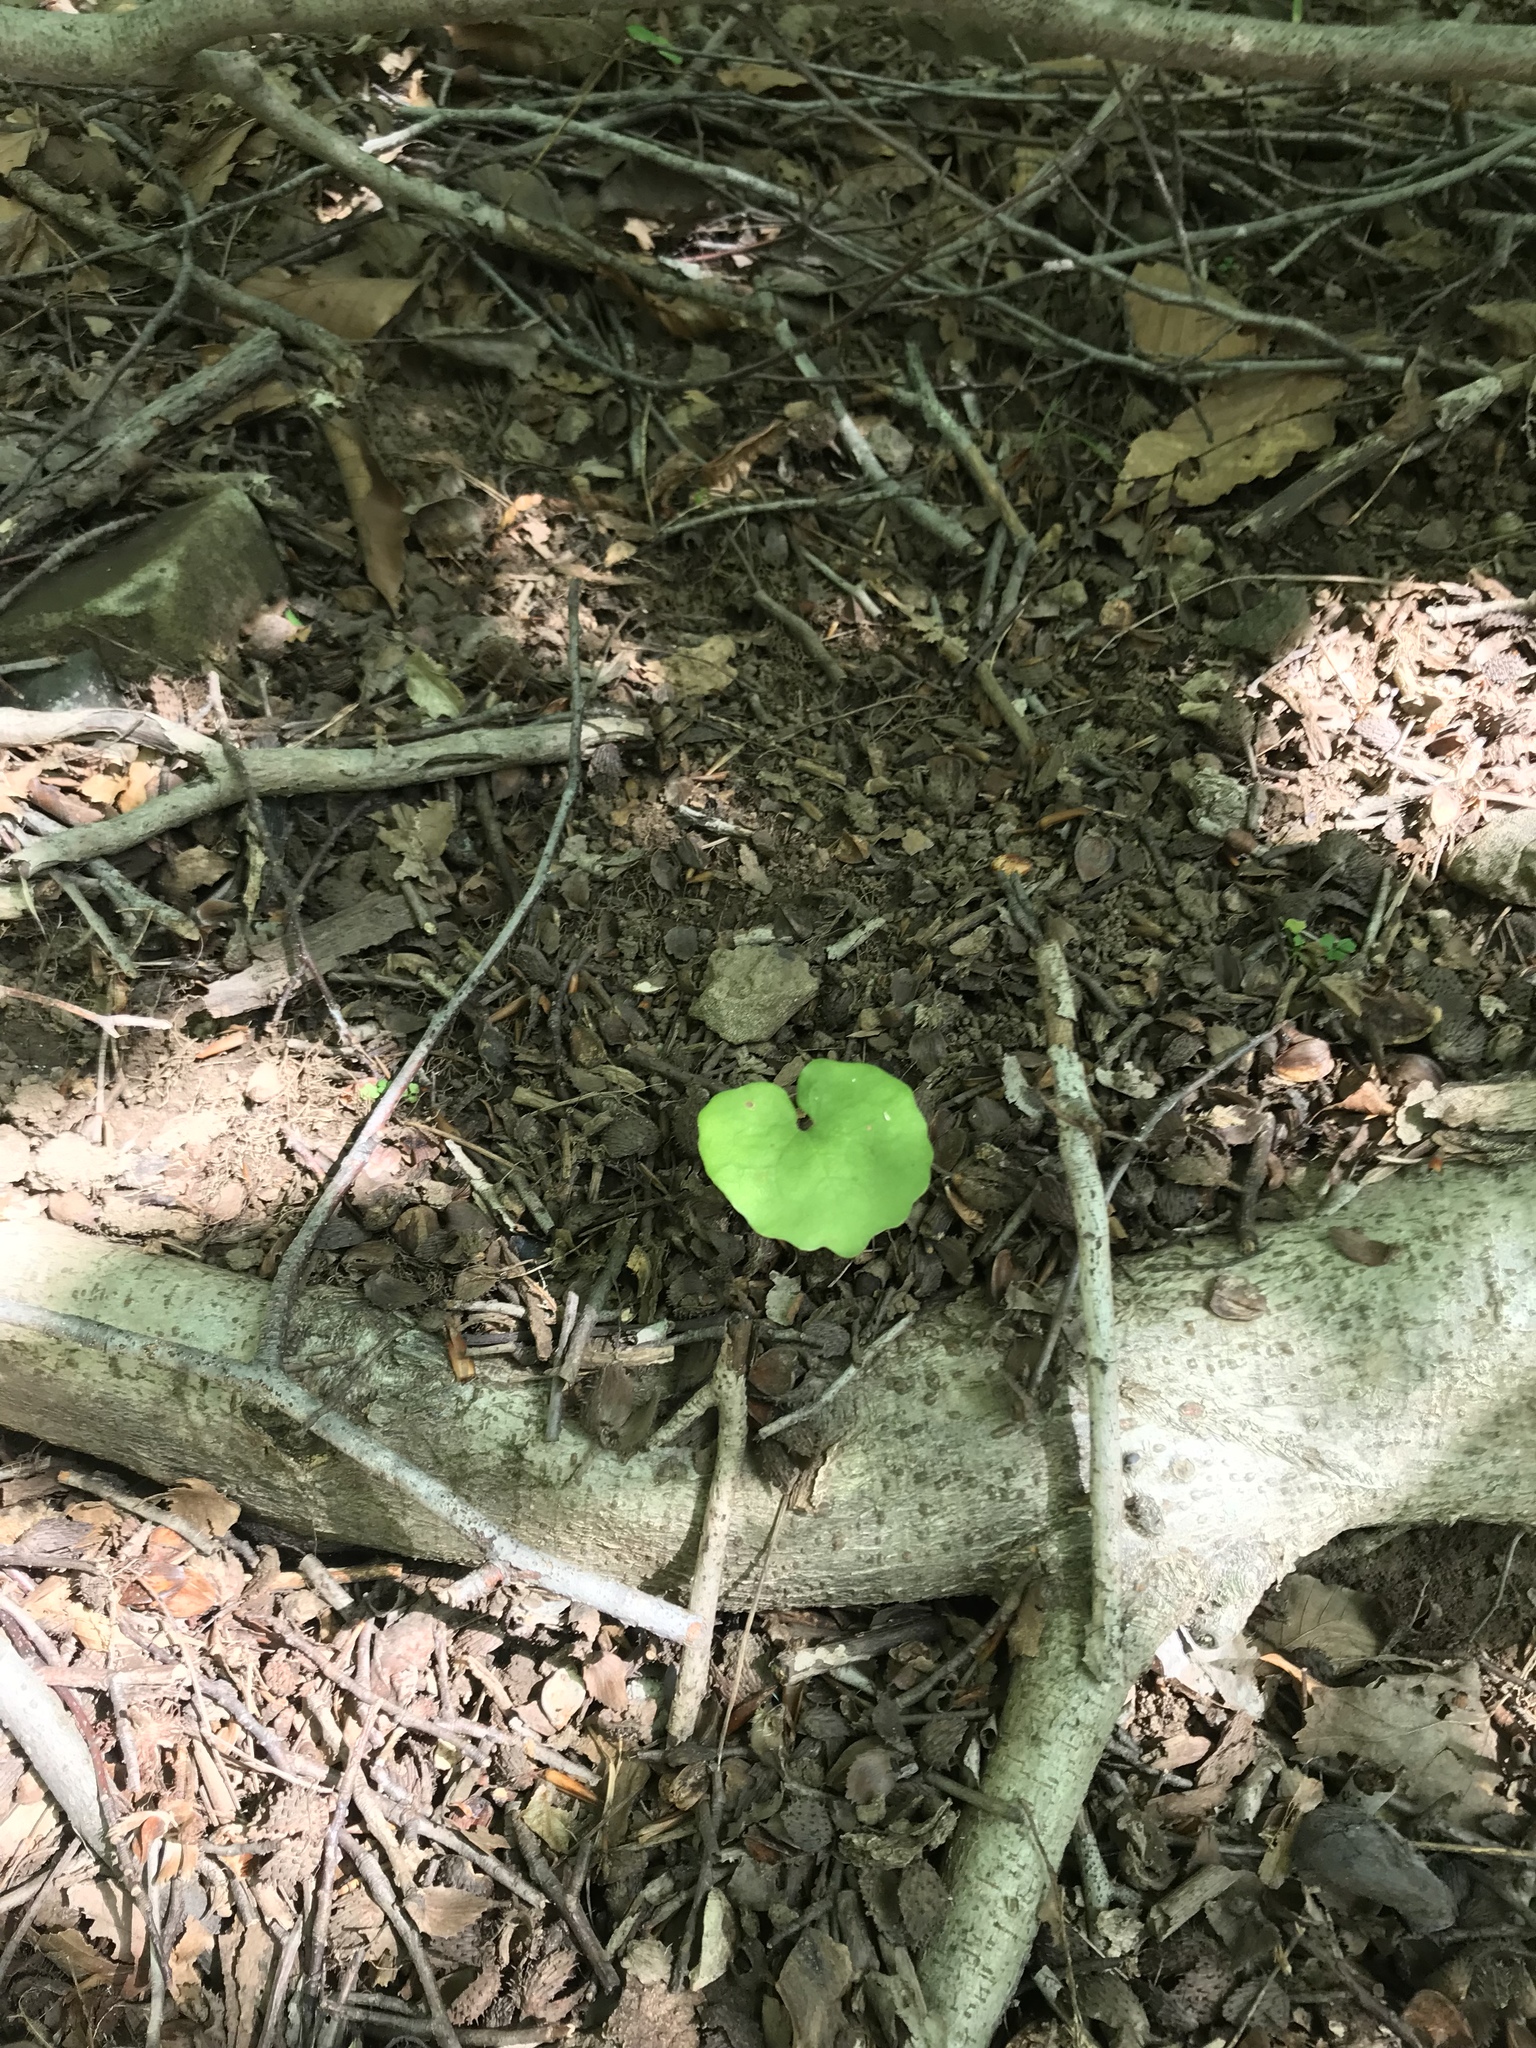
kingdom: Plantae
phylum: Tracheophyta
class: Magnoliopsida
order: Ranunculales
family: Papaveraceae
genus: Sanguinaria
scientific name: Sanguinaria canadensis
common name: Bloodroot
